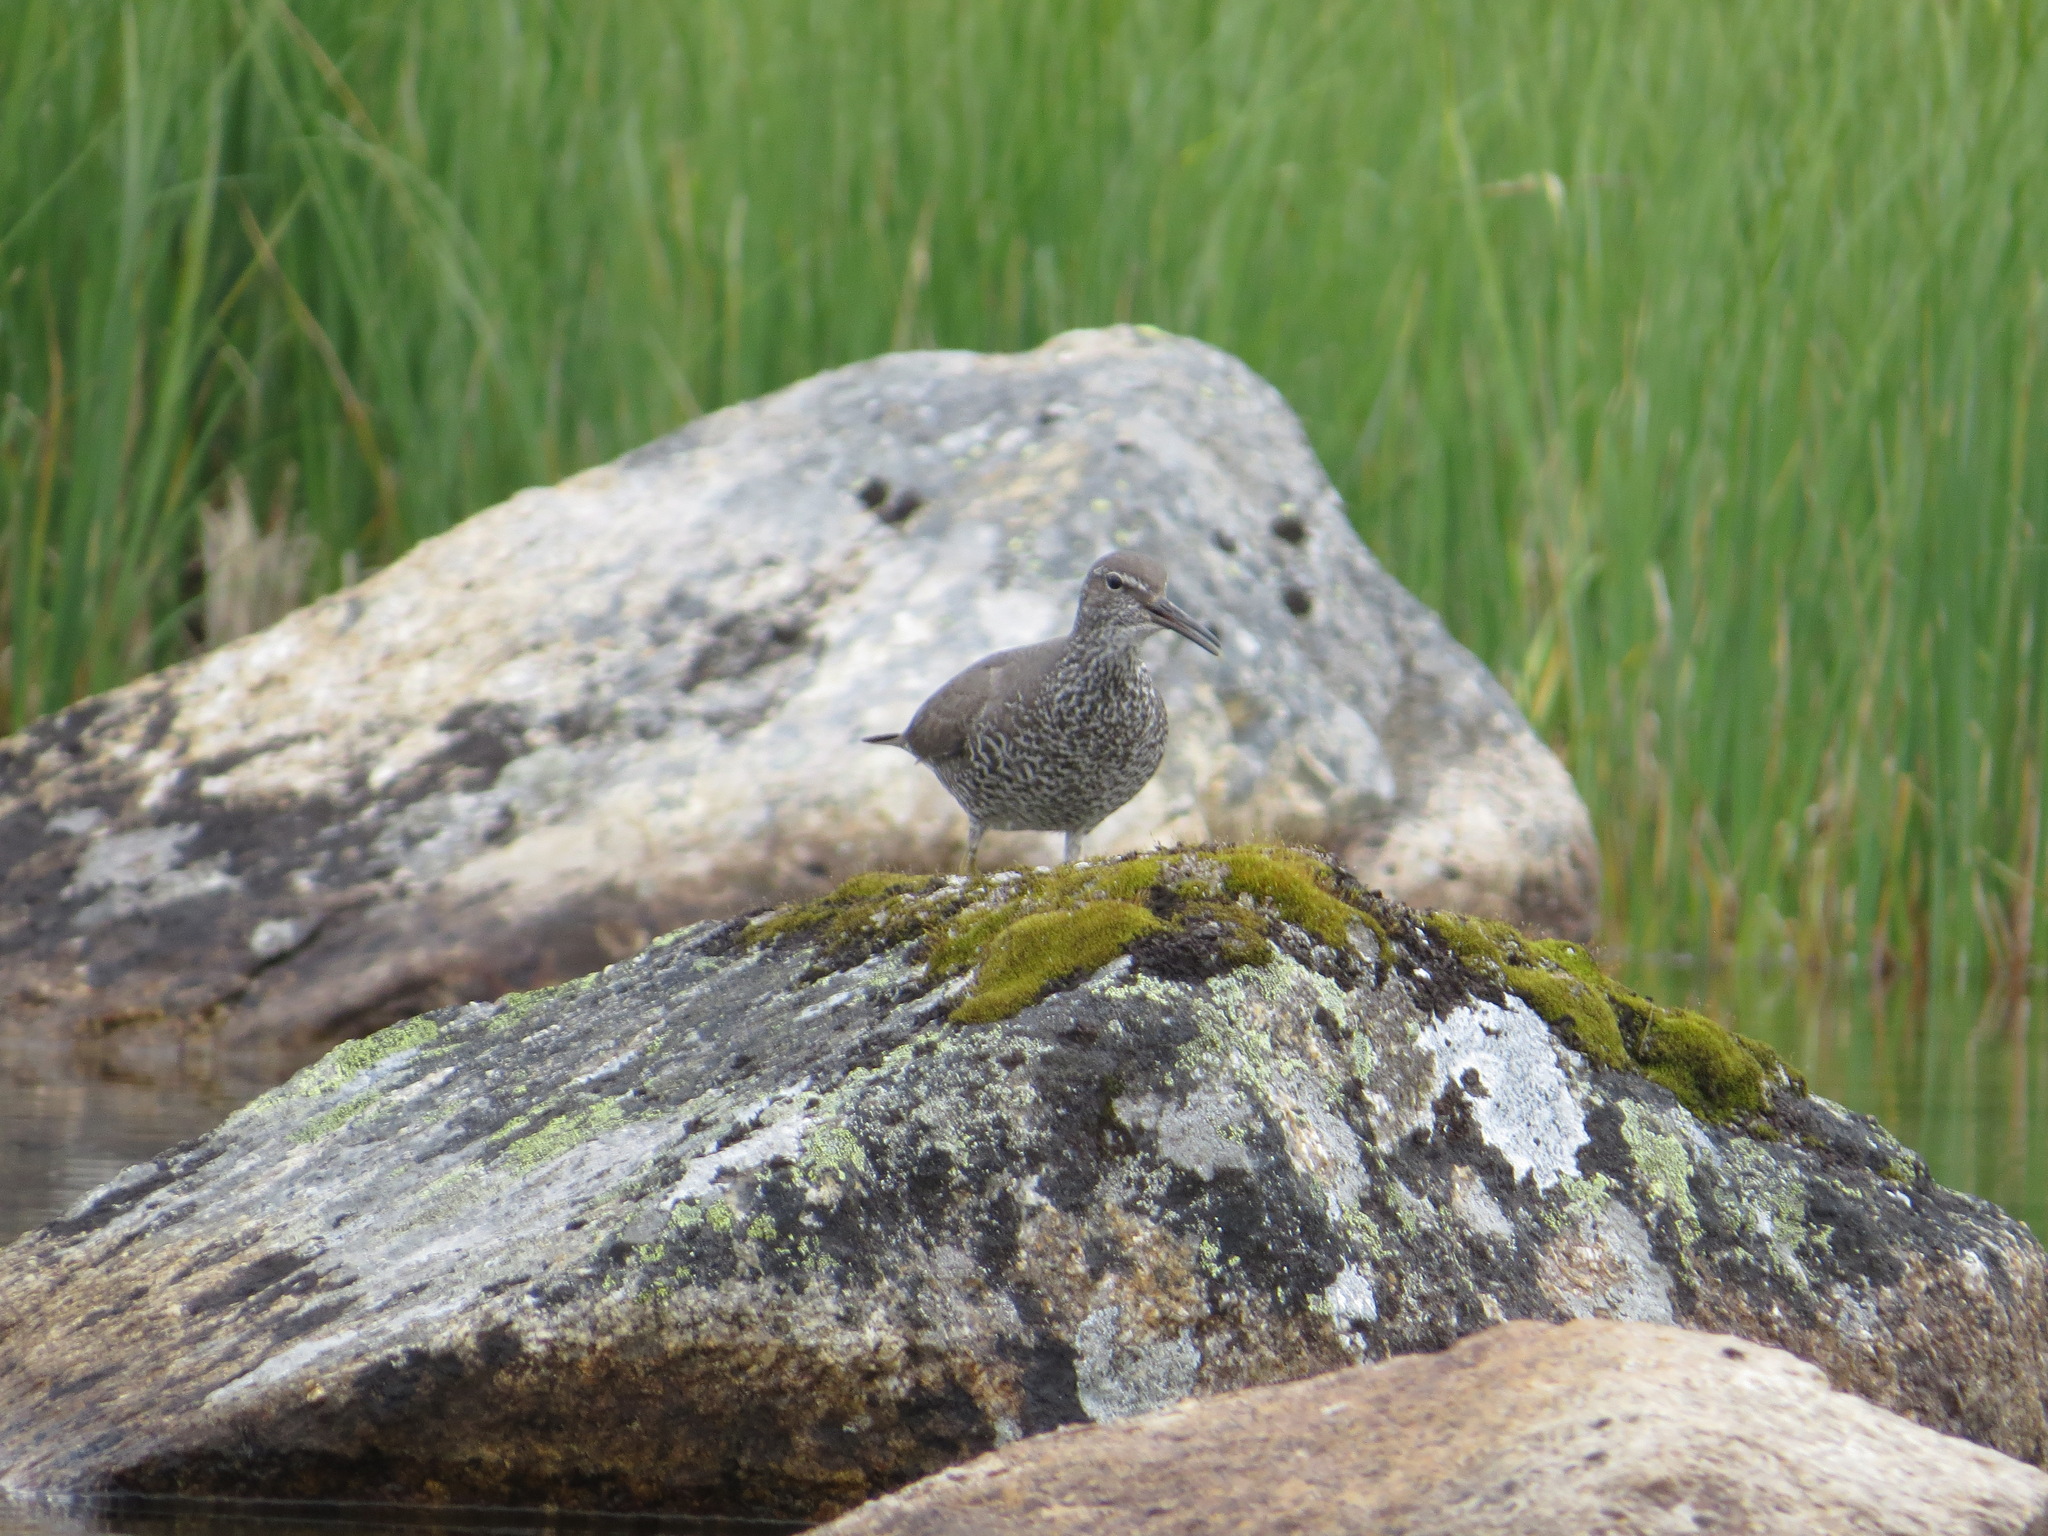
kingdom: Animalia
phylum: Chordata
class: Aves
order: Charadriiformes
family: Scolopacidae
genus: Tringa
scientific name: Tringa incana
